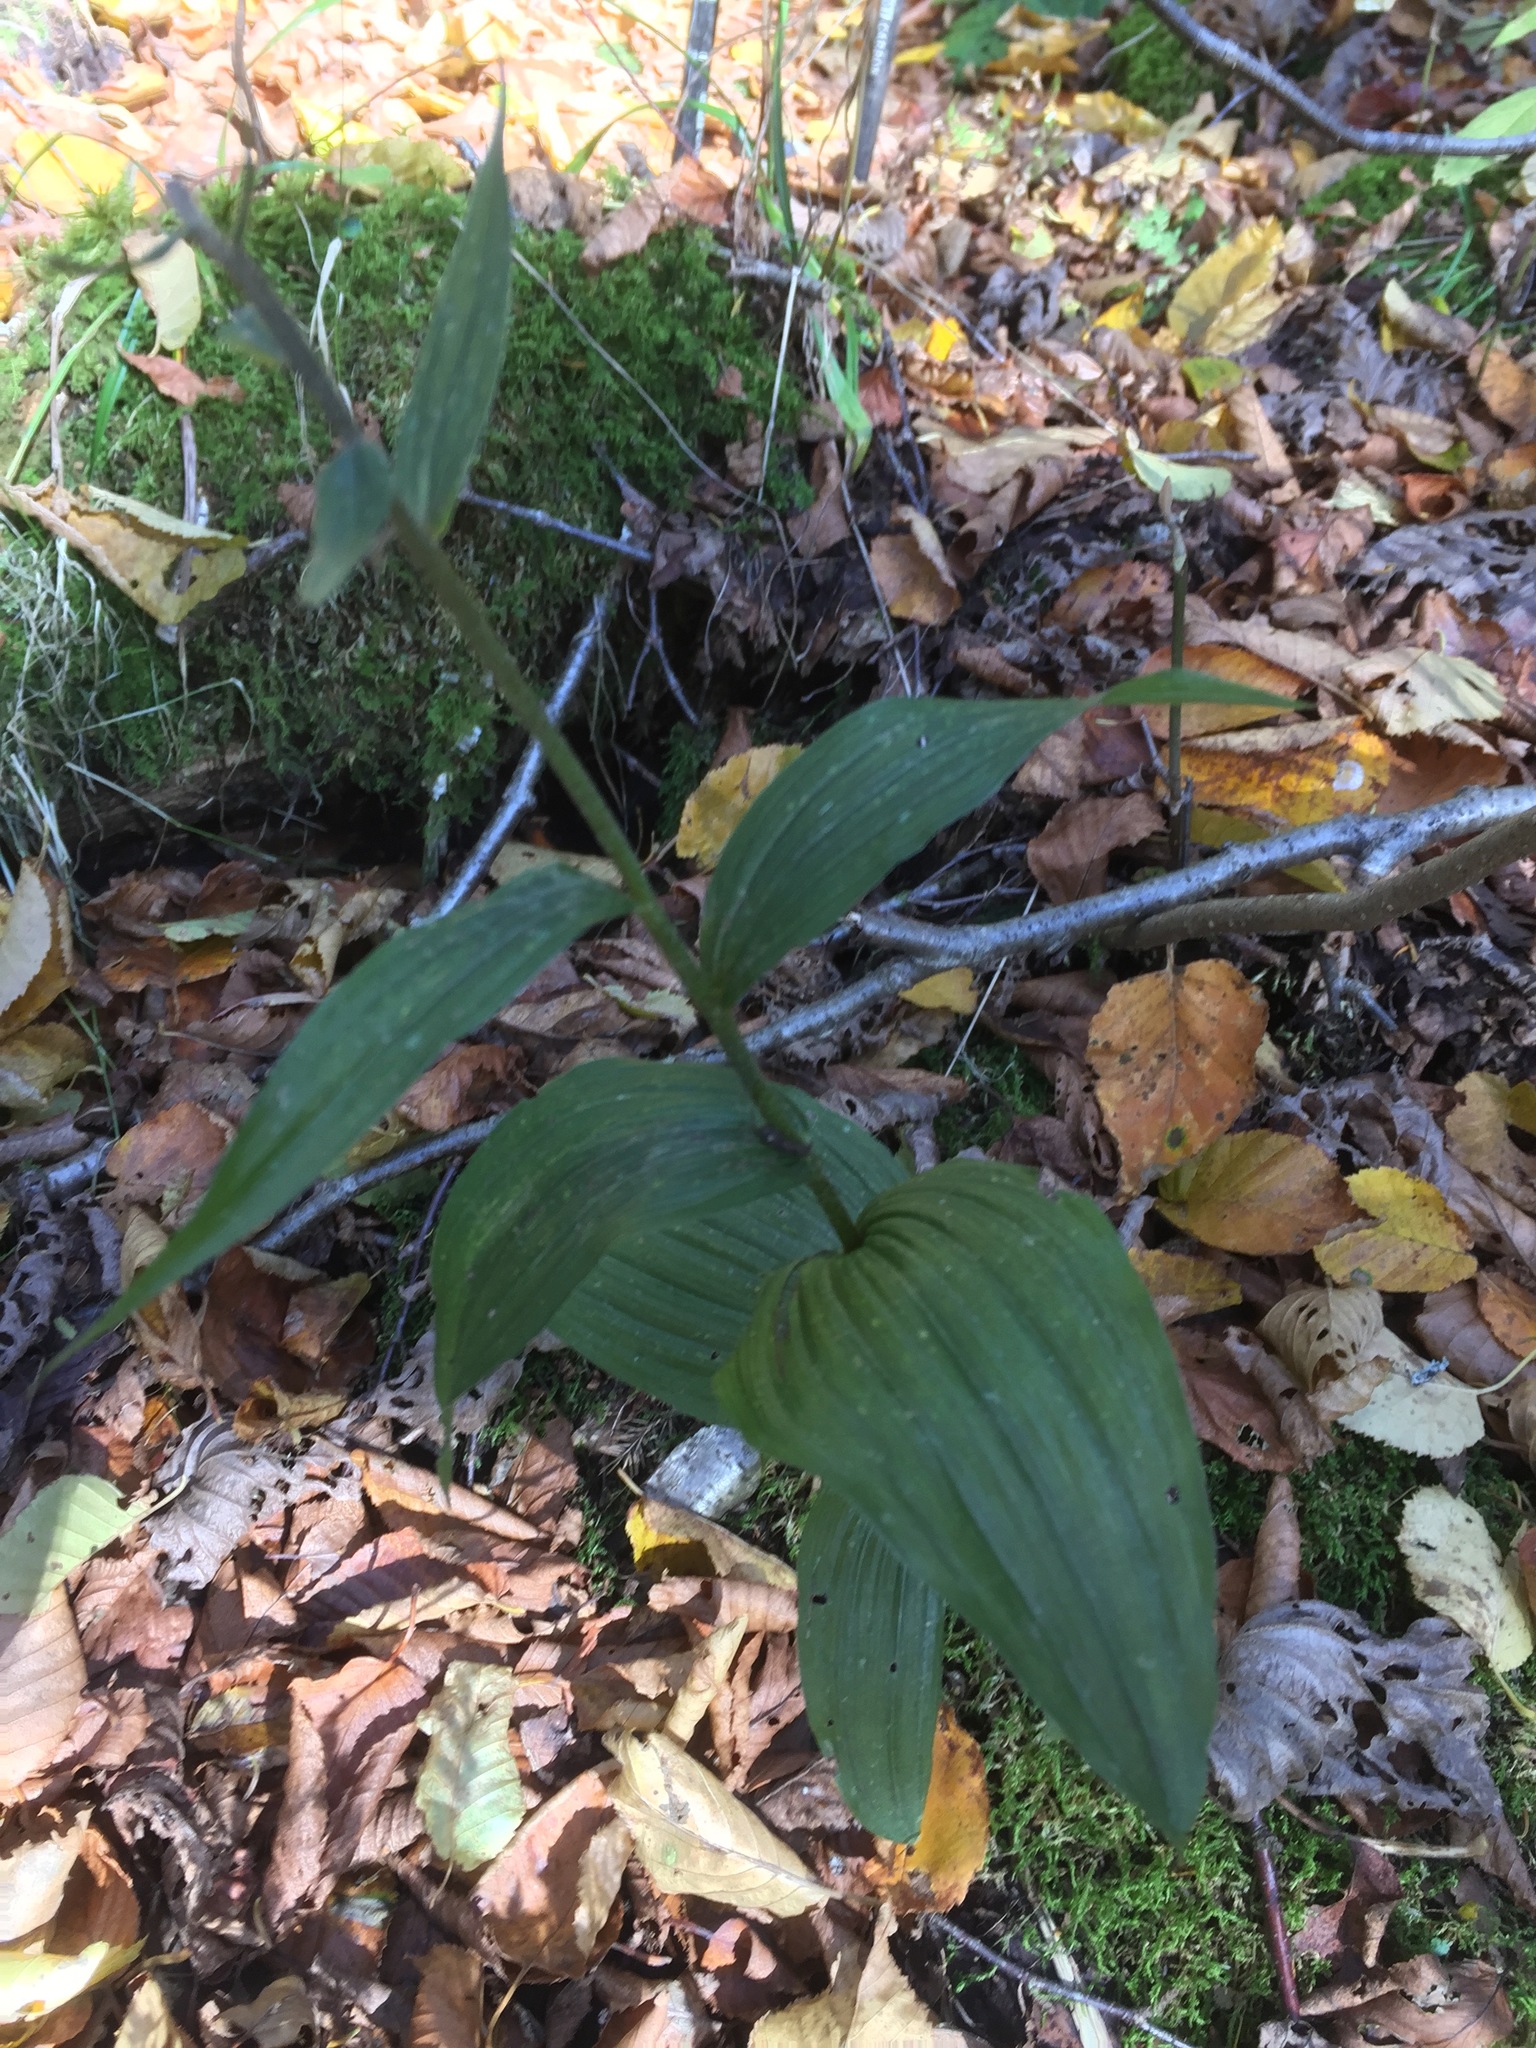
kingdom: Plantae
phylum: Tracheophyta
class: Liliopsida
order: Asparagales
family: Orchidaceae
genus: Epipactis
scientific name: Epipactis helleborine
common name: Broad-leaved helleborine
